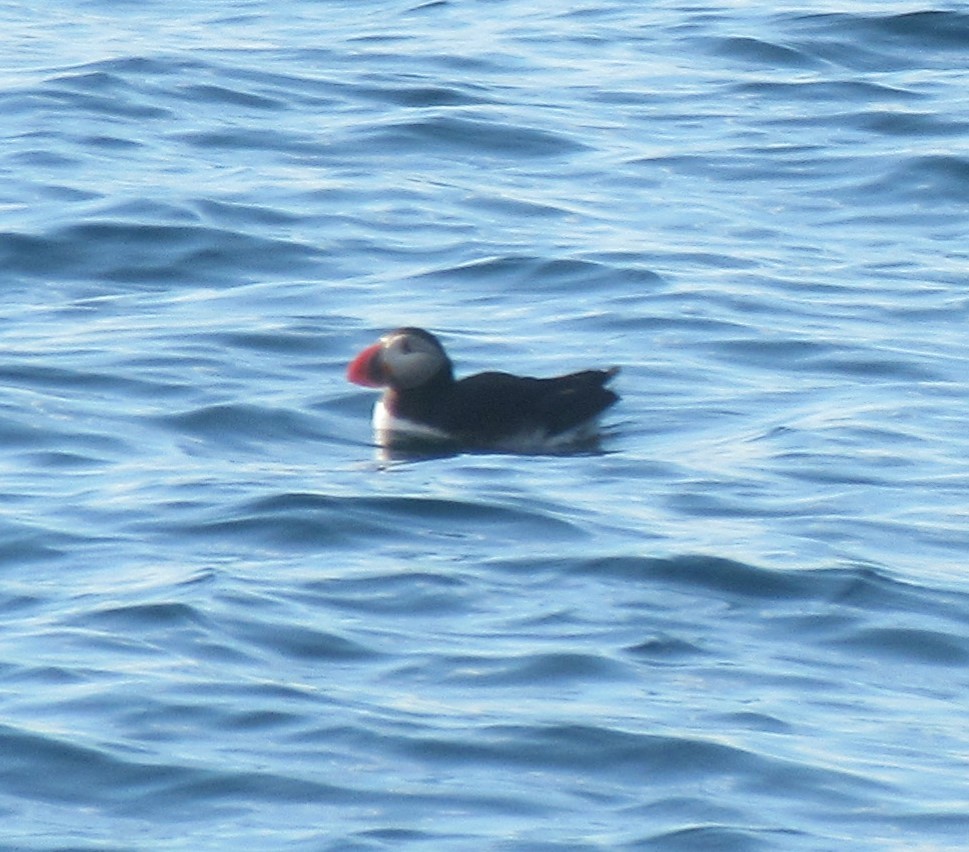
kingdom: Animalia
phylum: Chordata
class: Aves
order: Charadriiformes
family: Alcidae
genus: Fratercula
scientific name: Fratercula arctica
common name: Atlantic puffin
